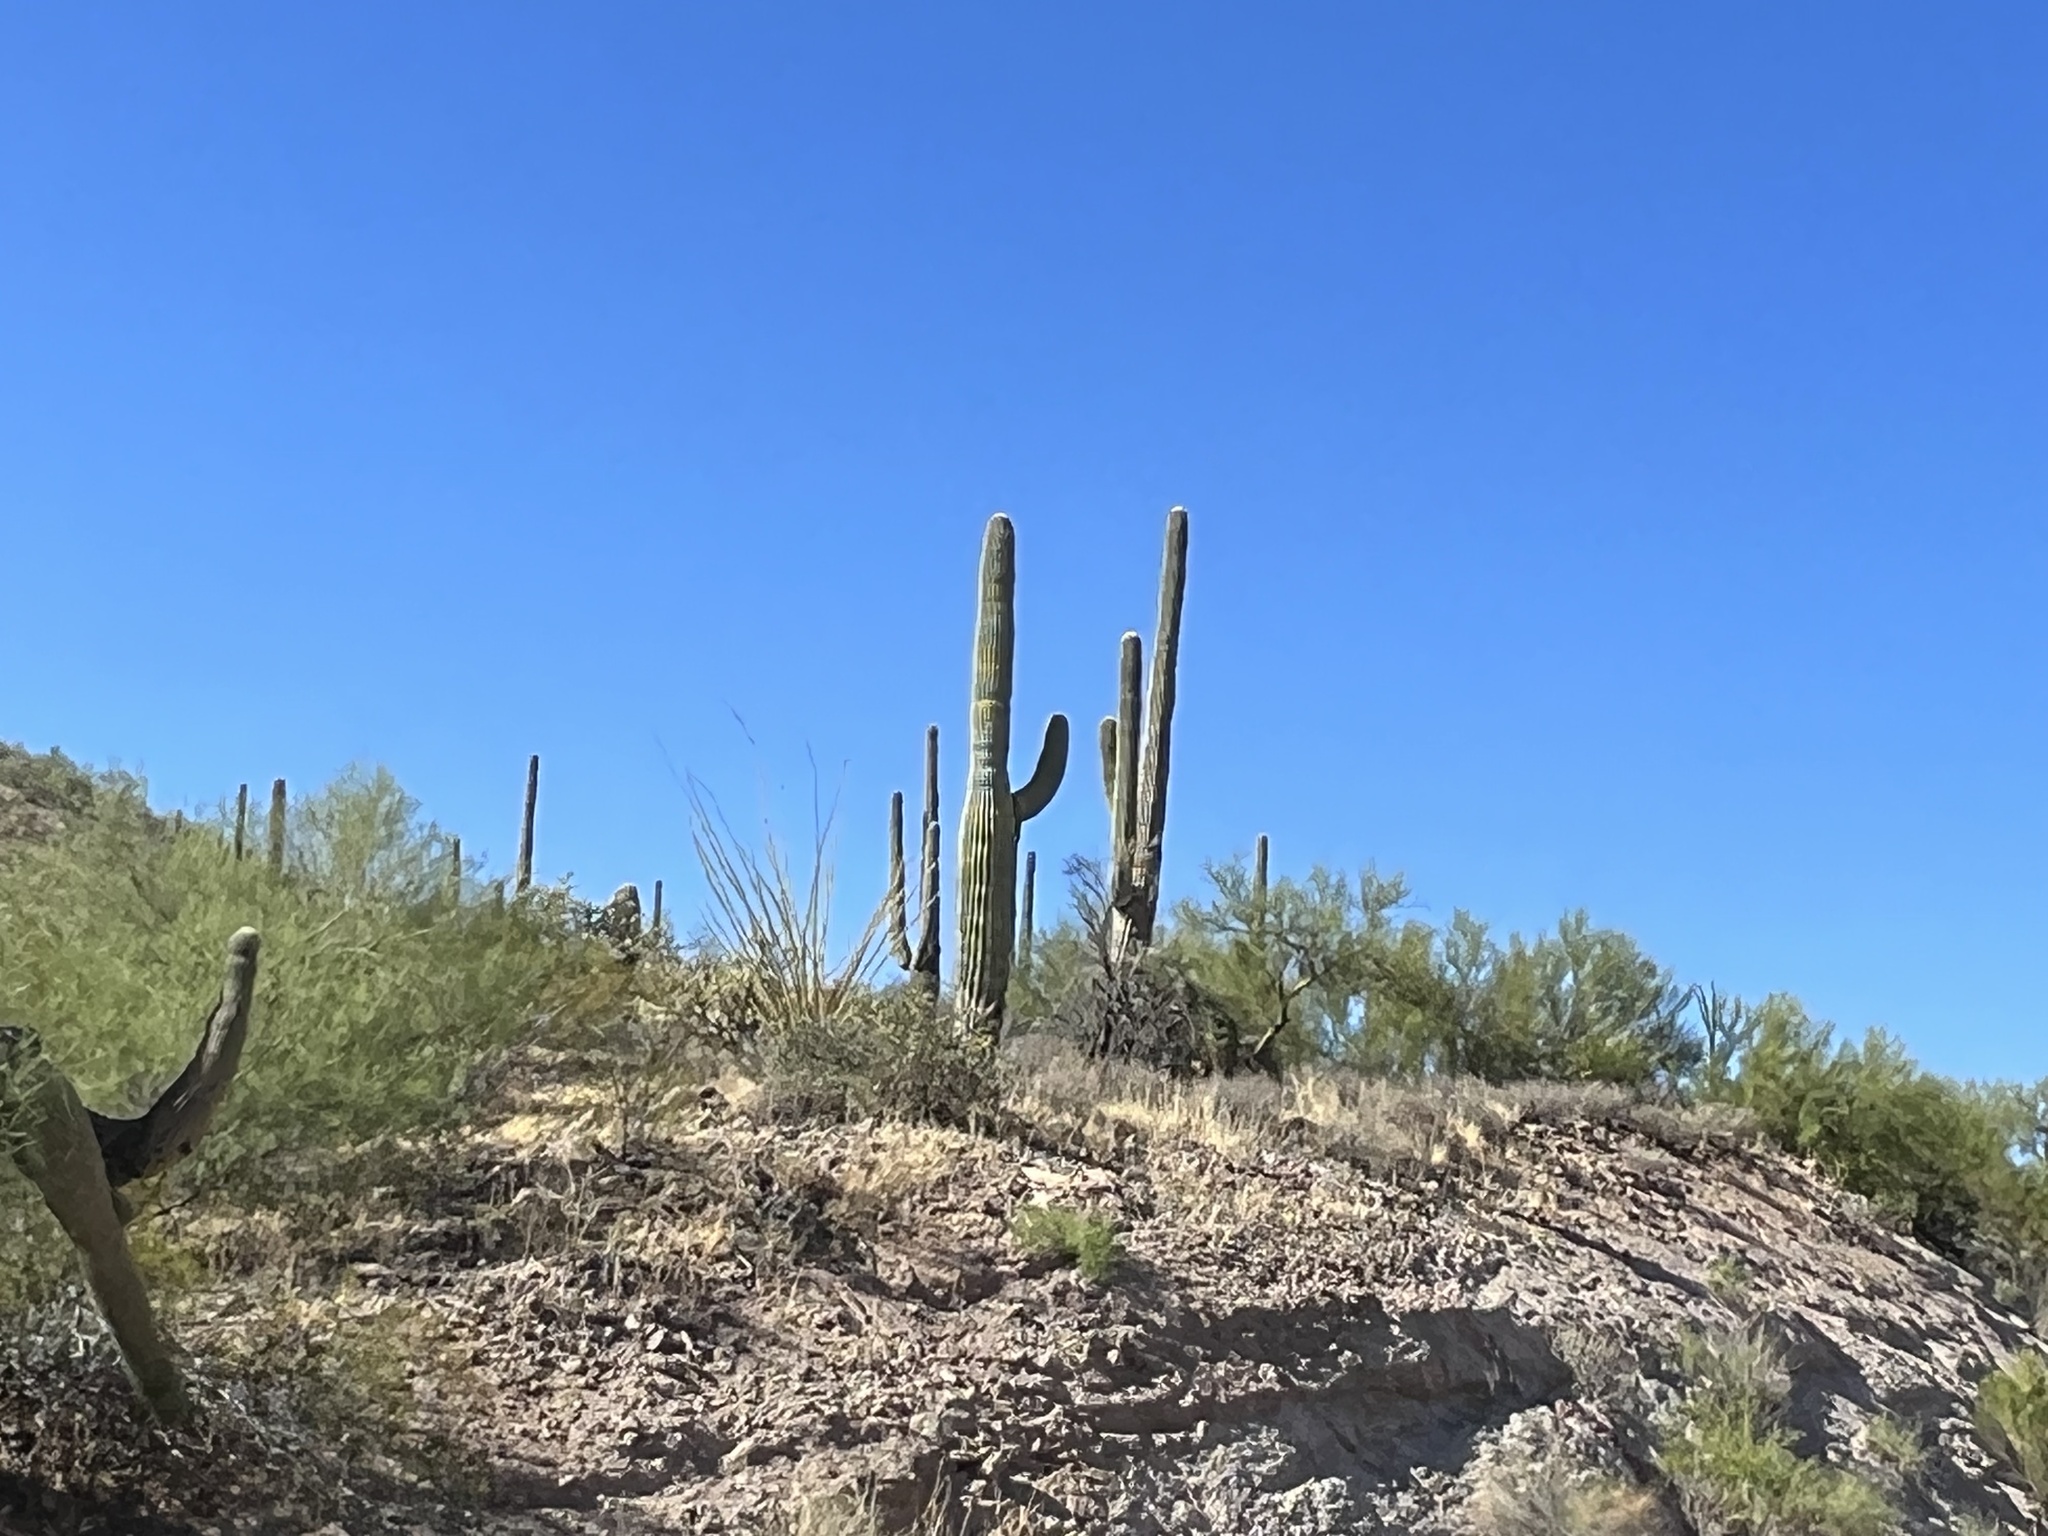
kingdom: Plantae
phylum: Tracheophyta
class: Magnoliopsida
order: Caryophyllales
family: Cactaceae
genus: Carnegiea
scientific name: Carnegiea gigantea
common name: Saguaro
